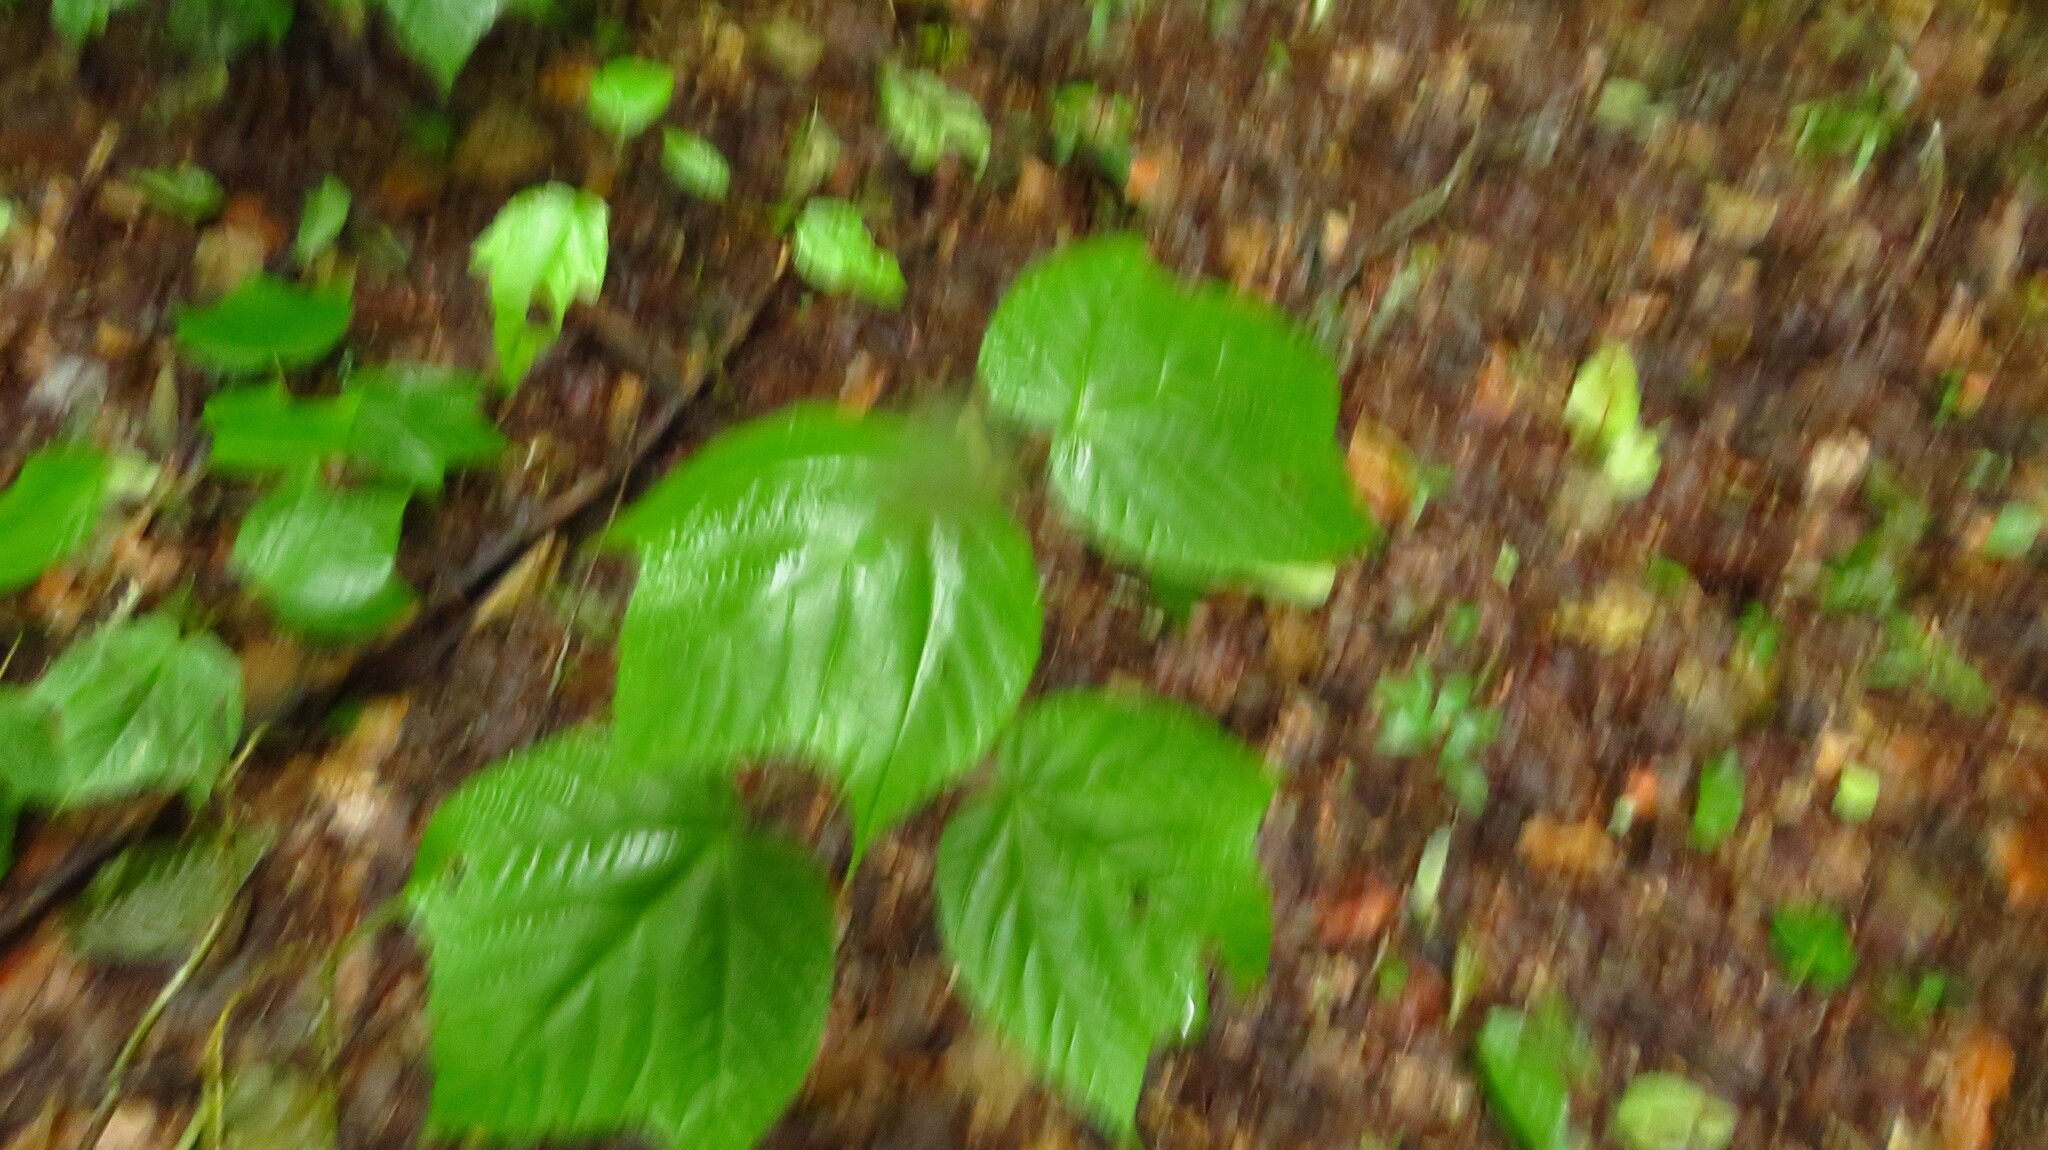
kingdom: Plantae
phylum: Tracheophyta
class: Magnoliopsida
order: Sapindales
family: Sapindaceae
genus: Acer
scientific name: Acer pensylvanicum
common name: Moosewood
